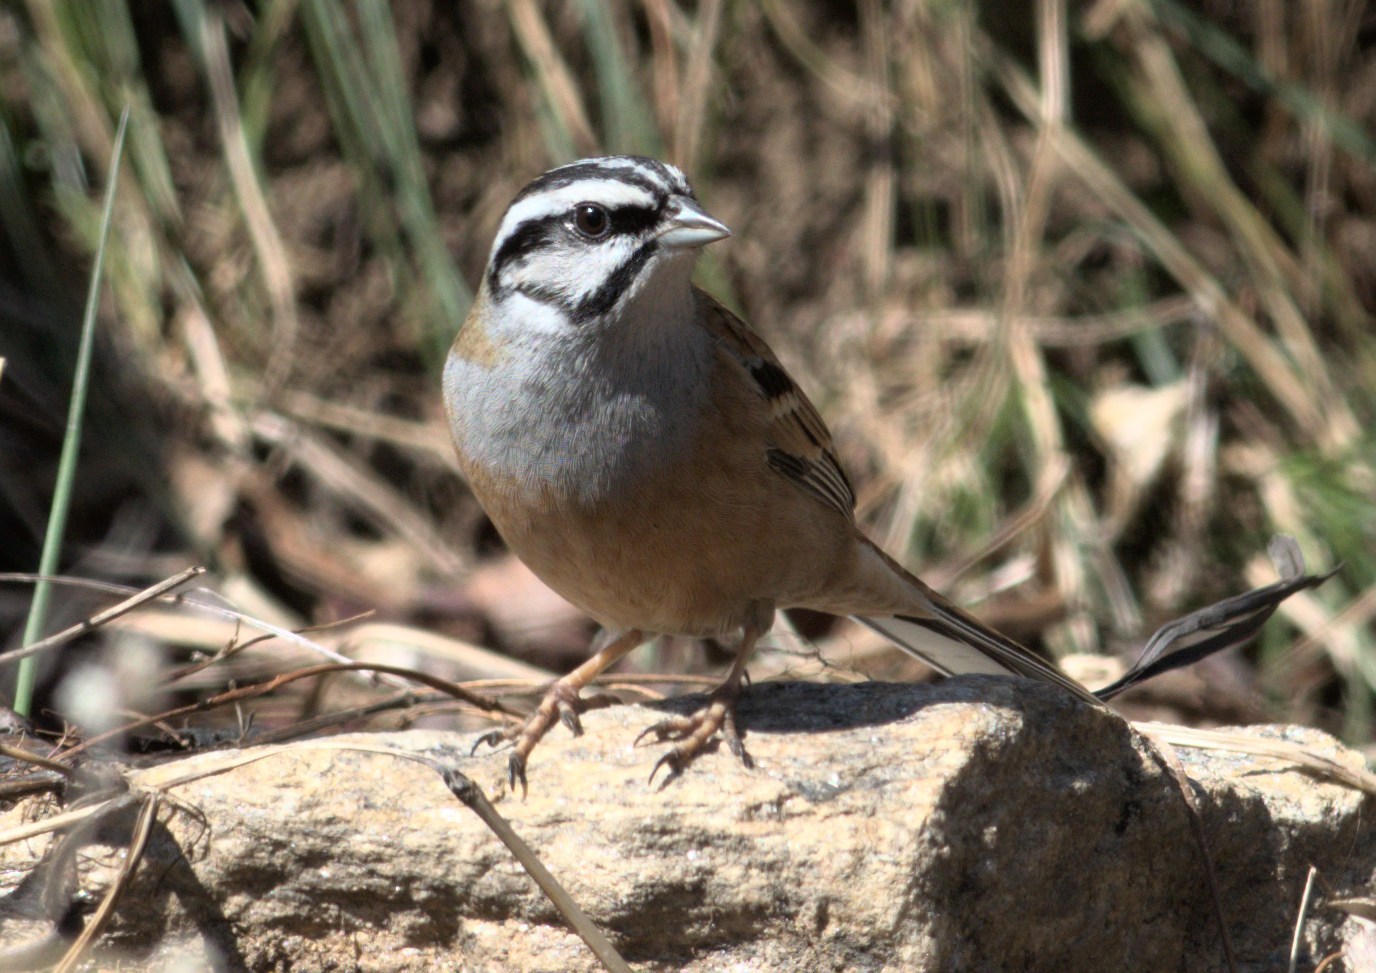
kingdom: Animalia
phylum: Chordata
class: Aves
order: Passeriformes
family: Emberizidae
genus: Emberiza
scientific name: Emberiza cia
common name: Rock bunting
